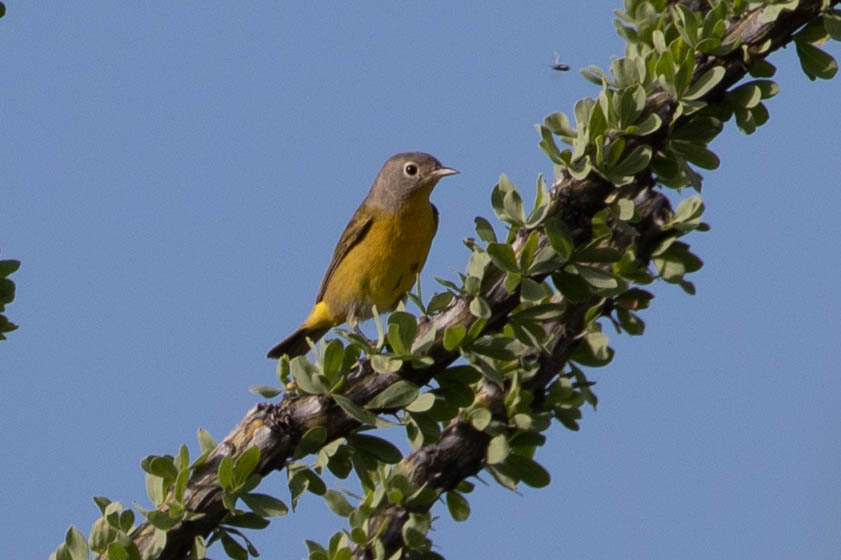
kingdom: Animalia
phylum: Chordata
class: Aves
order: Passeriformes
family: Parulidae
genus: Leiothlypis
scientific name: Leiothlypis ruficapilla
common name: Nashville warbler
